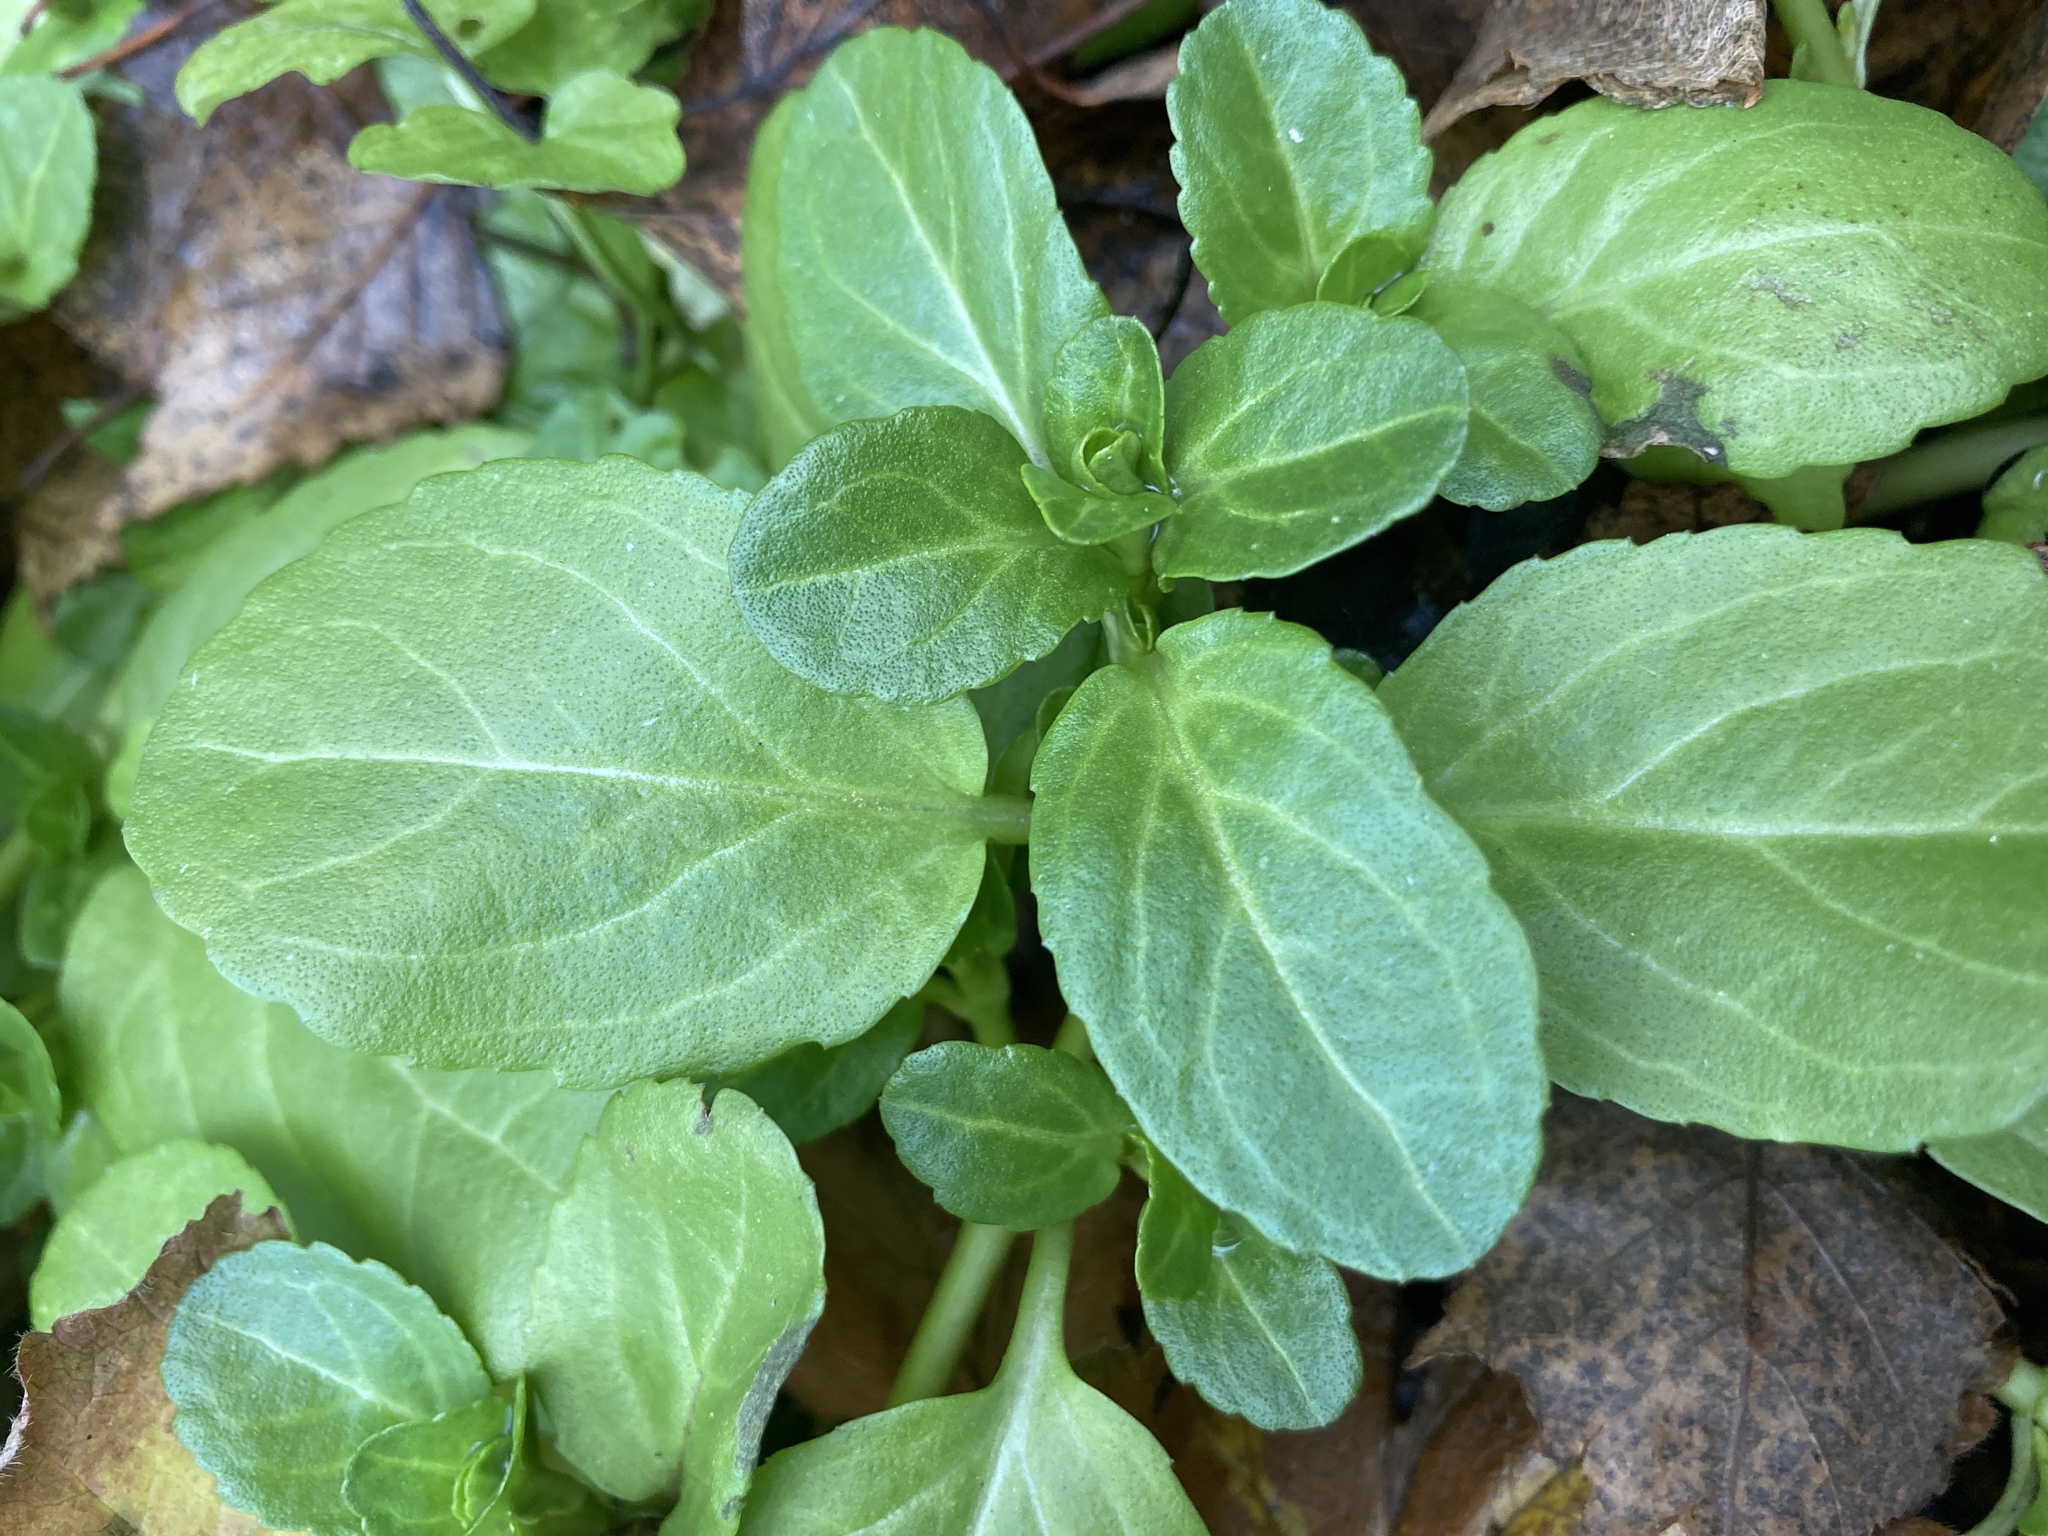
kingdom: Plantae
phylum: Tracheophyta
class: Magnoliopsida
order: Lamiales
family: Plantaginaceae
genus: Veronica
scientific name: Veronica beccabunga
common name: Brooklime
